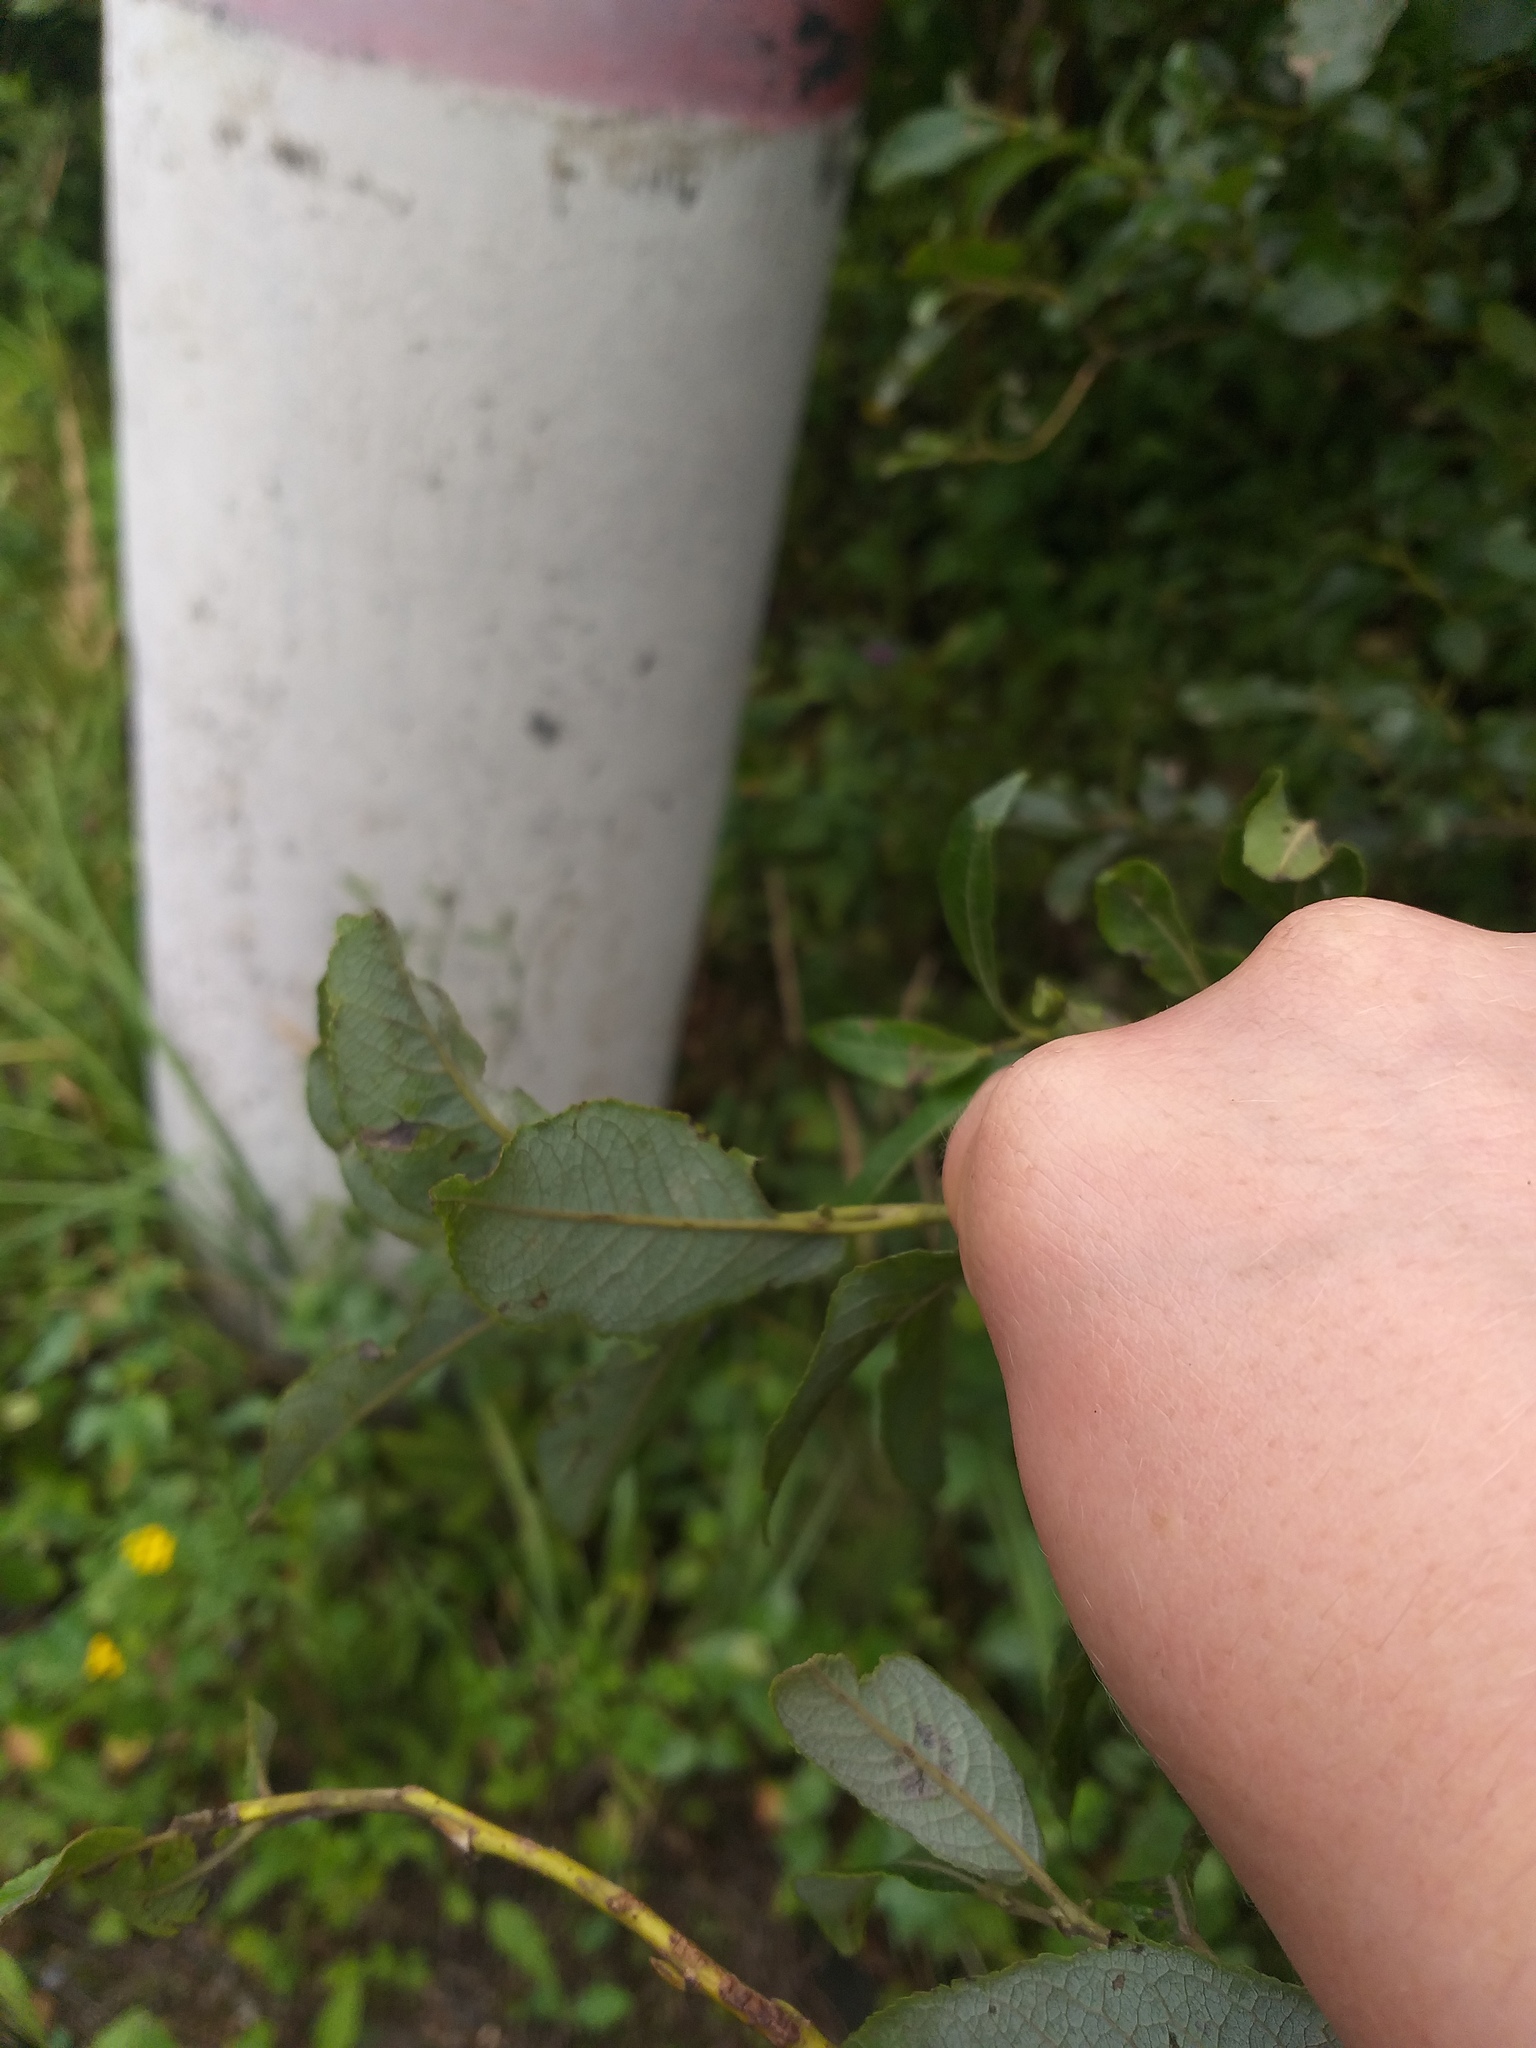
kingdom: Plantae
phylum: Tracheophyta
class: Magnoliopsida
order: Malpighiales
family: Salicaceae
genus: Salix
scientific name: Salix myrsinifolia
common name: Dark-leaved willow
